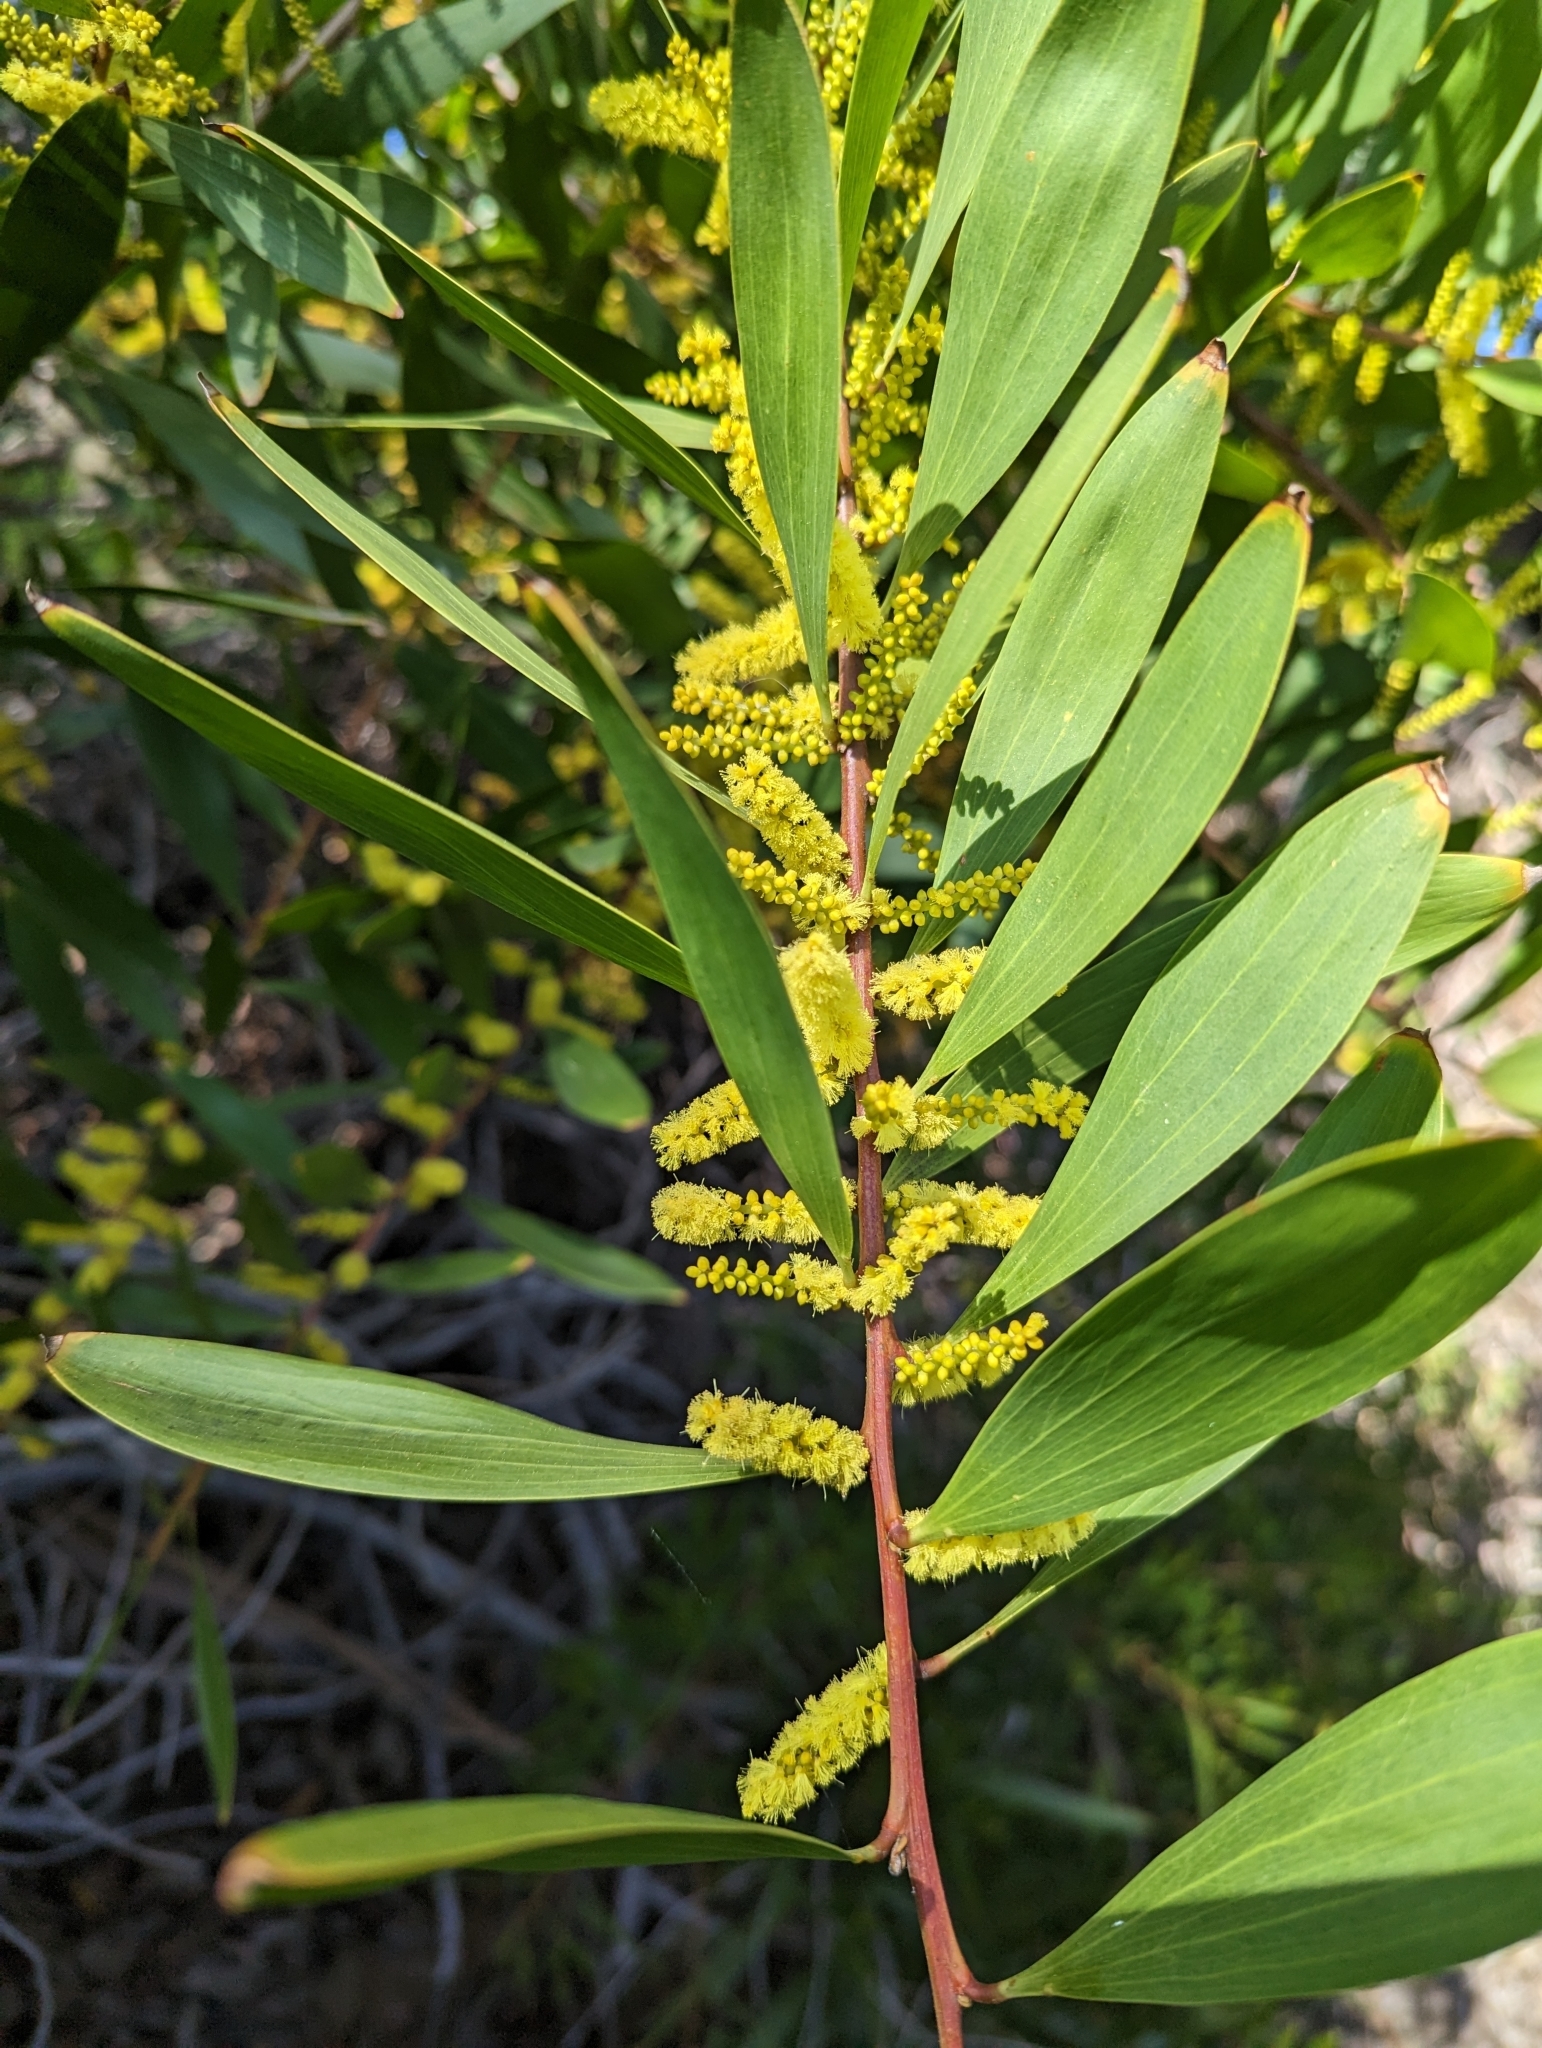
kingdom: Plantae
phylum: Tracheophyta
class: Magnoliopsida
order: Fabales
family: Fabaceae
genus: Acacia
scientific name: Acacia longifolia
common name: Sydney golden wattle
